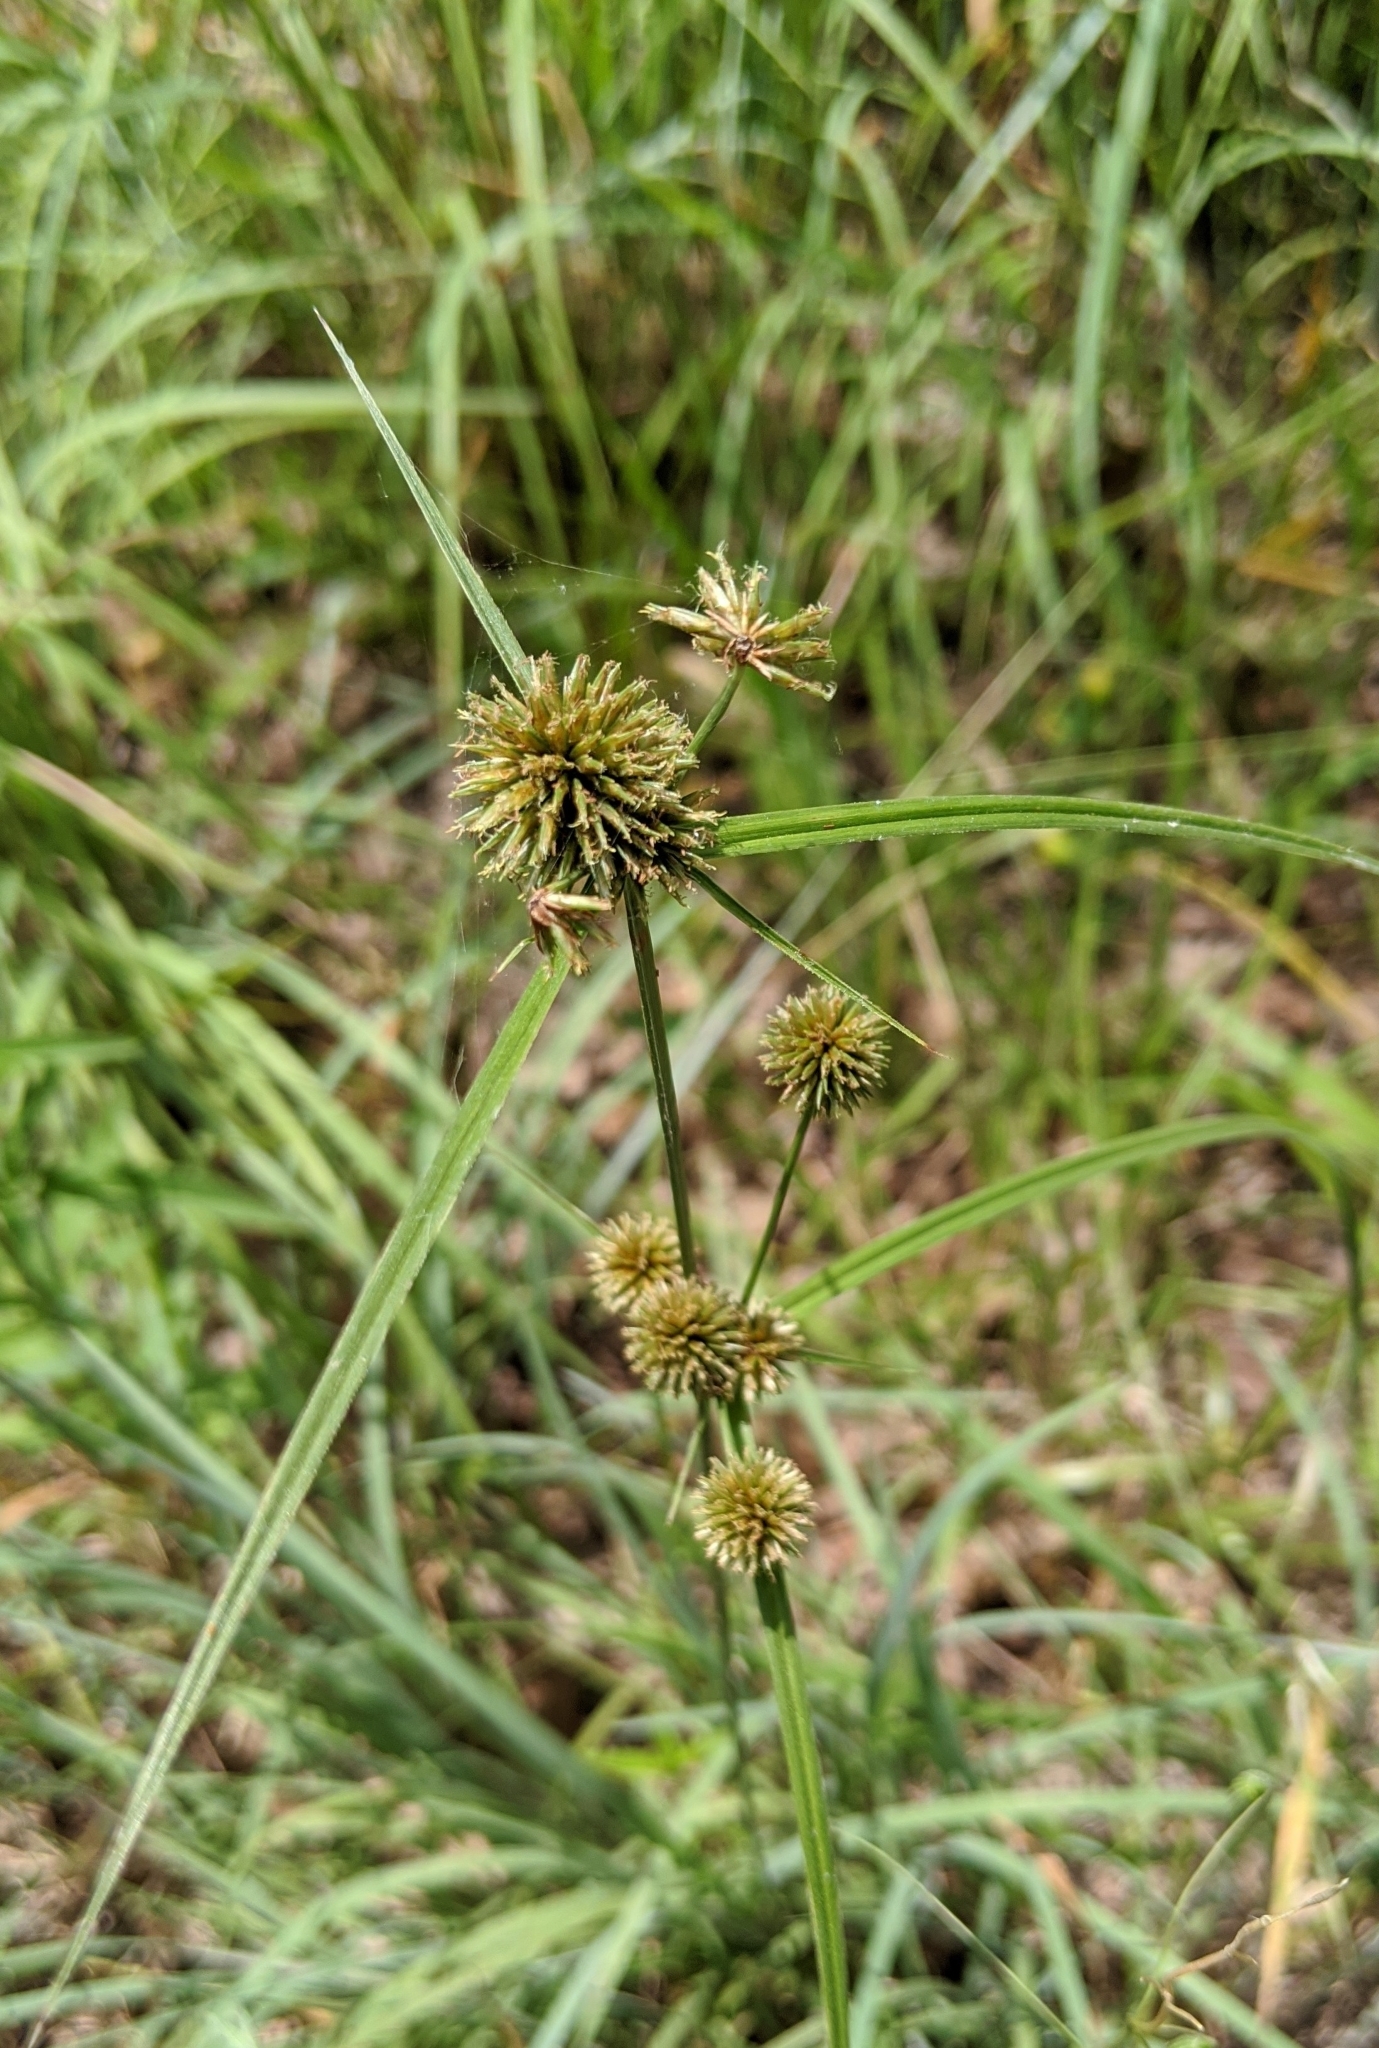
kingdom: Plantae
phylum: Tracheophyta
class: Liliopsida
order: Poales
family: Cyperaceae
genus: Cyperus
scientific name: Cyperus echinatus
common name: Teasel sedge
